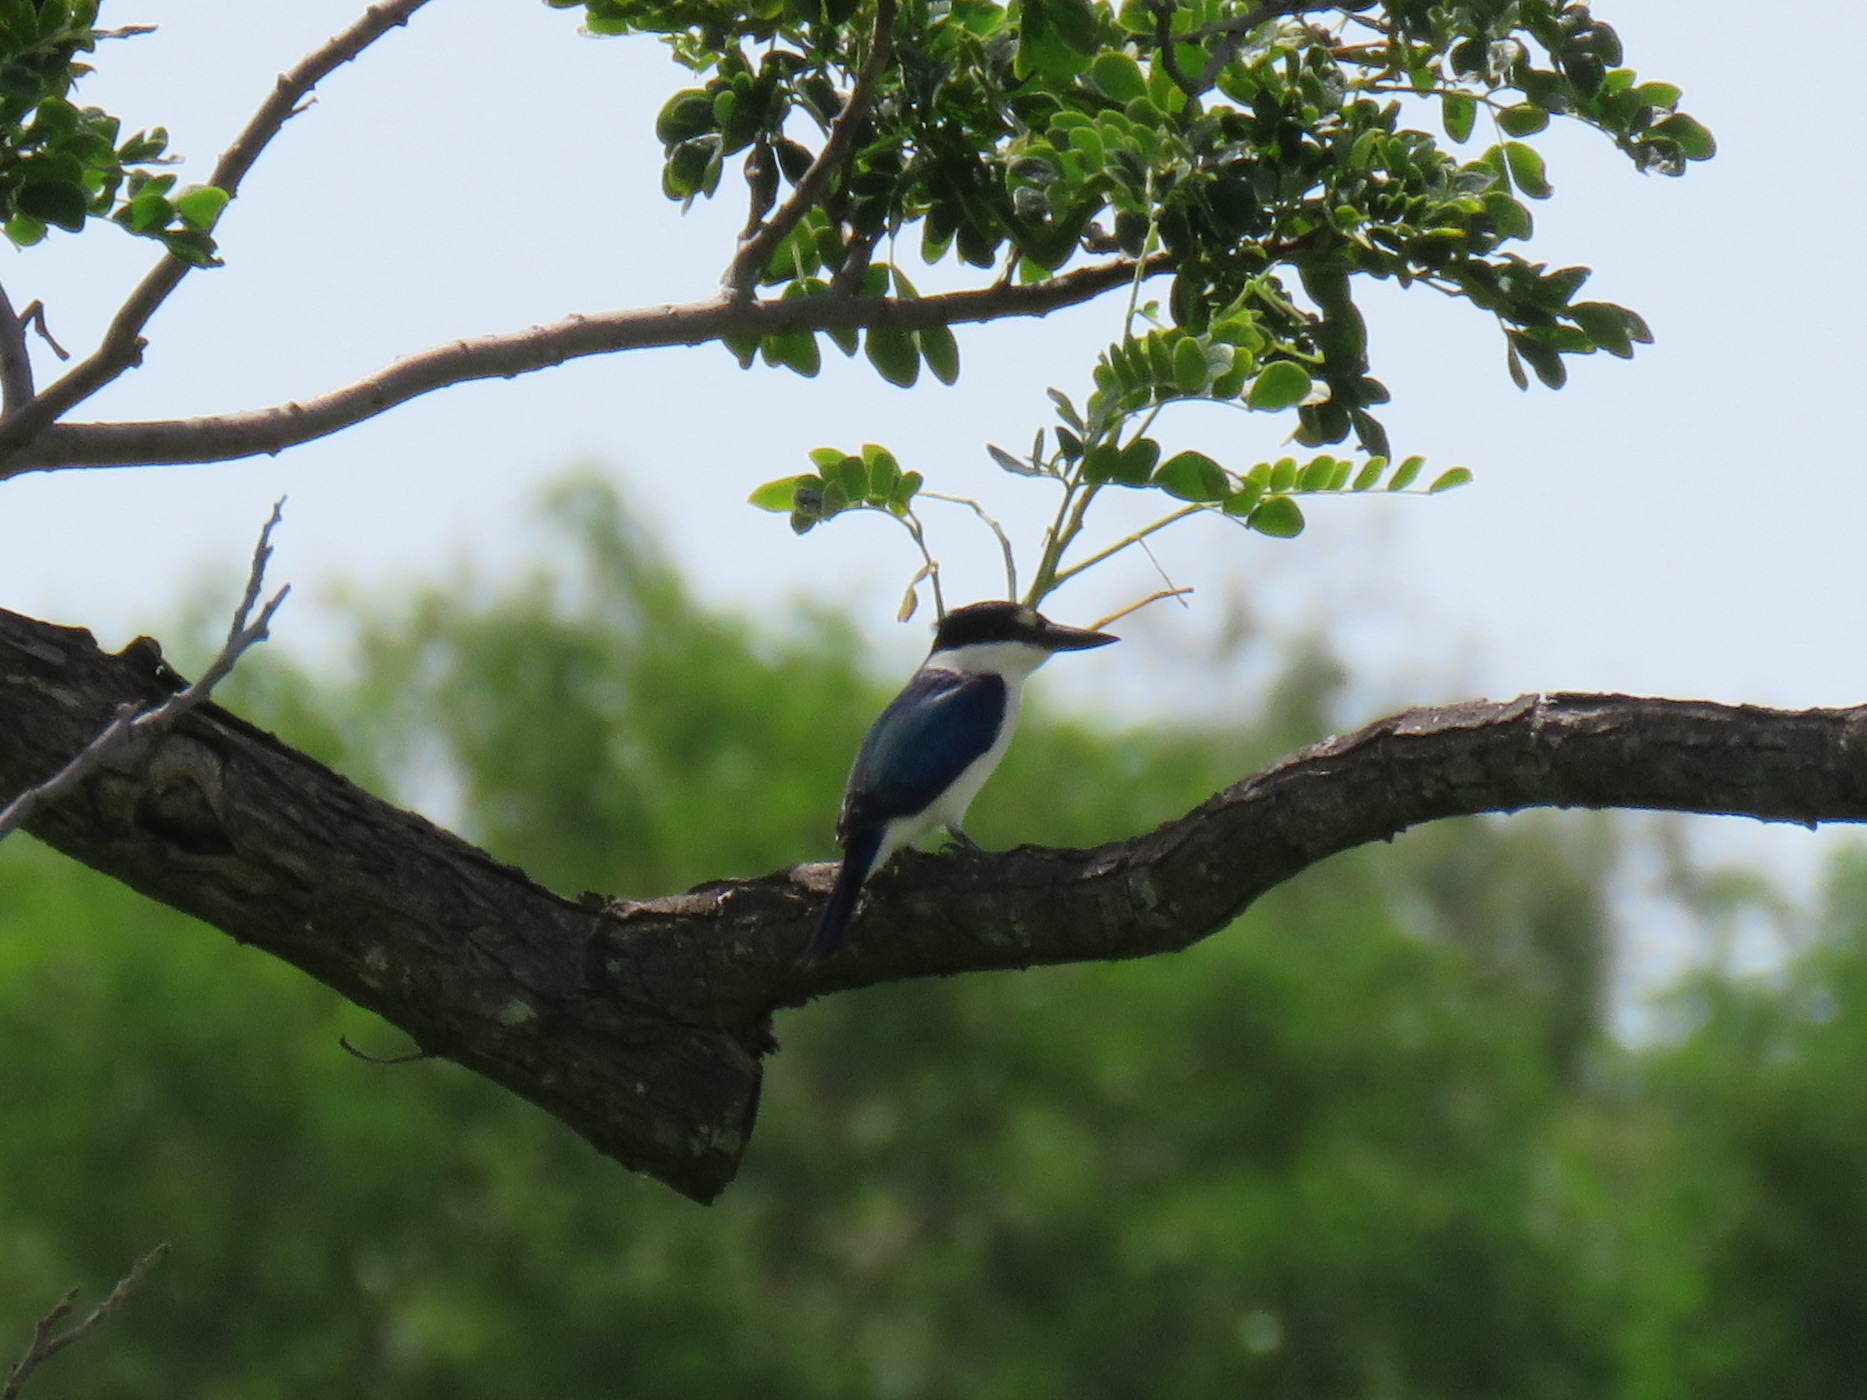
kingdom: Animalia
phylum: Chordata
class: Aves
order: Coraciiformes
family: Alcedinidae
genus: Todiramphus
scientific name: Todiramphus macleayii
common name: Forest kingfisher
